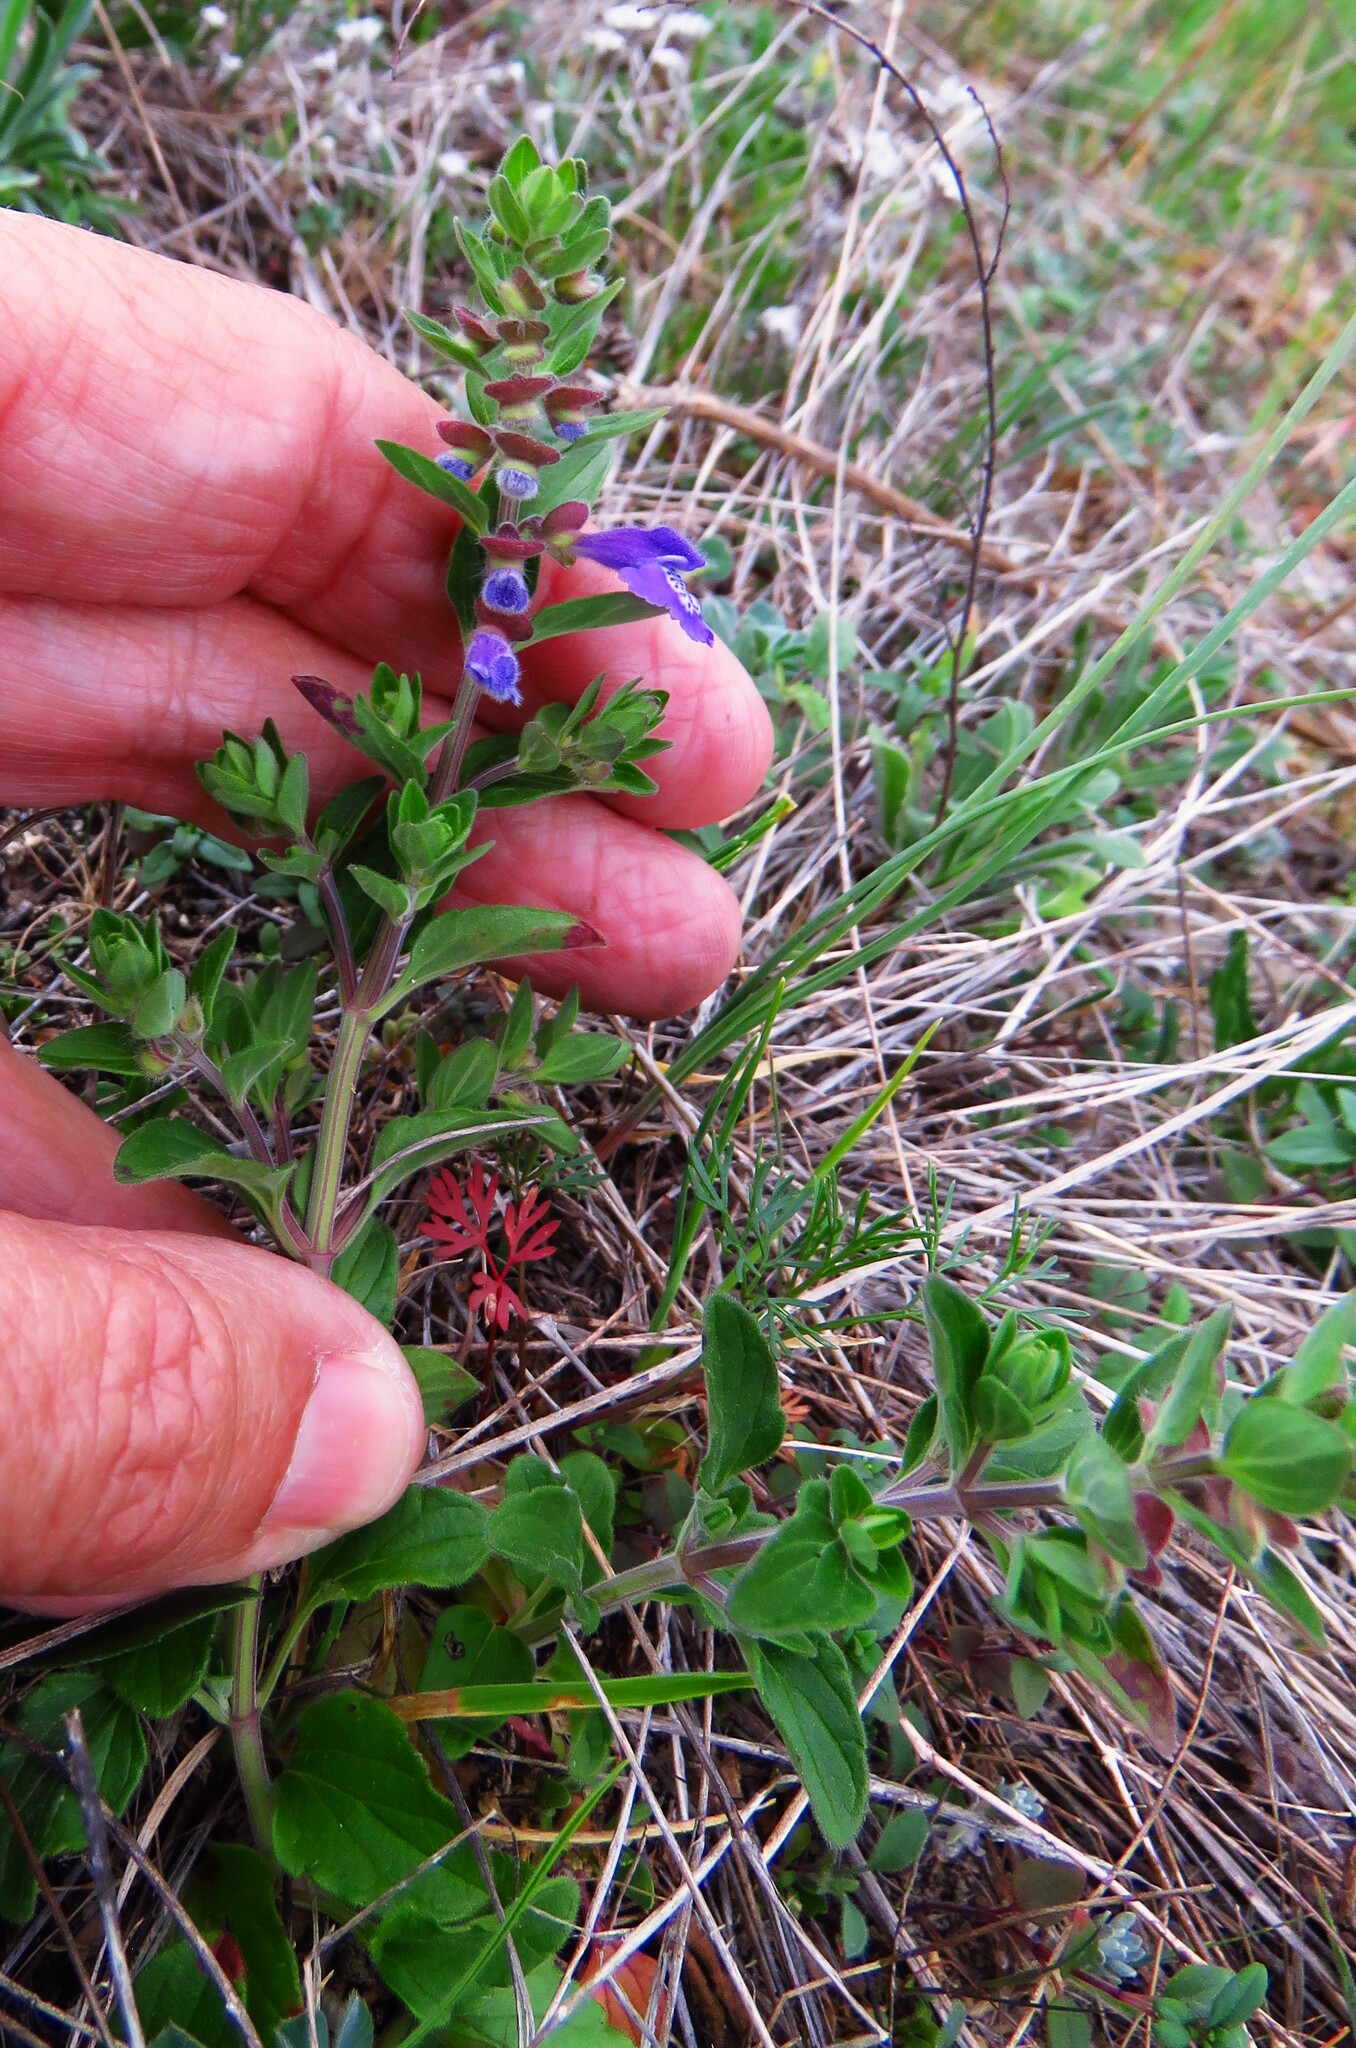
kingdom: Plantae
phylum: Tracheophyta
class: Magnoliopsida
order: Lamiales
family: Lamiaceae
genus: Scutellaria
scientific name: Scutellaria drummondii
